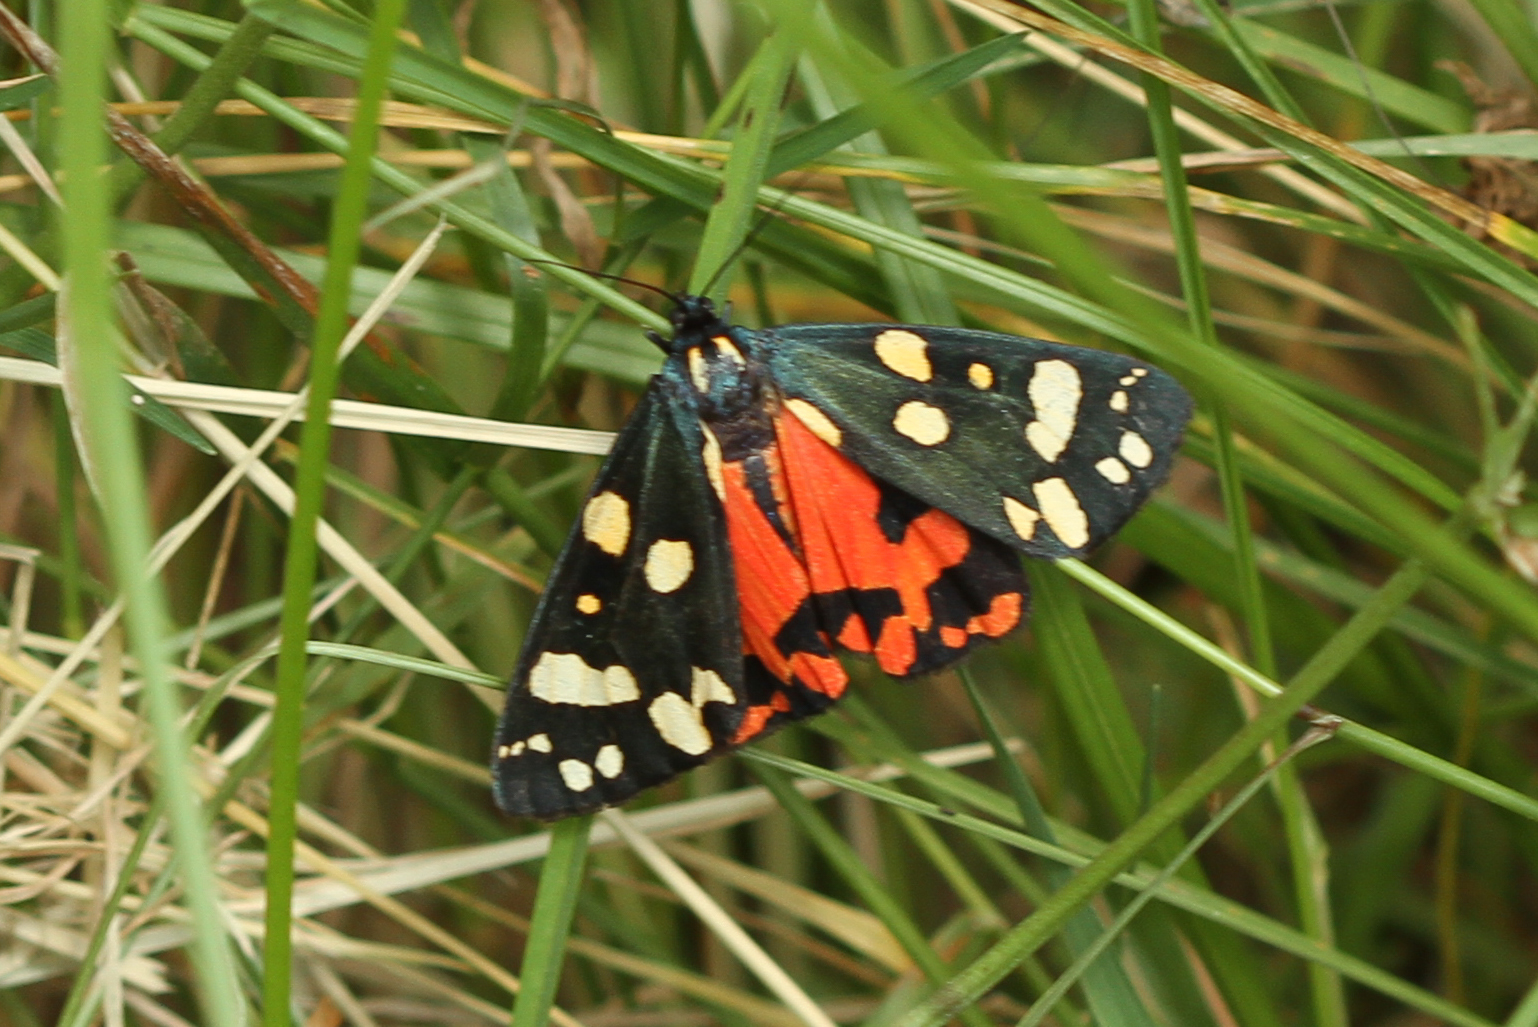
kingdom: Animalia
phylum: Arthropoda
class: Insecta
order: Lepidoptera
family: Erebidae
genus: Callimorpha
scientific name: Callimorpha dominula
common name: Scarlet tiger
